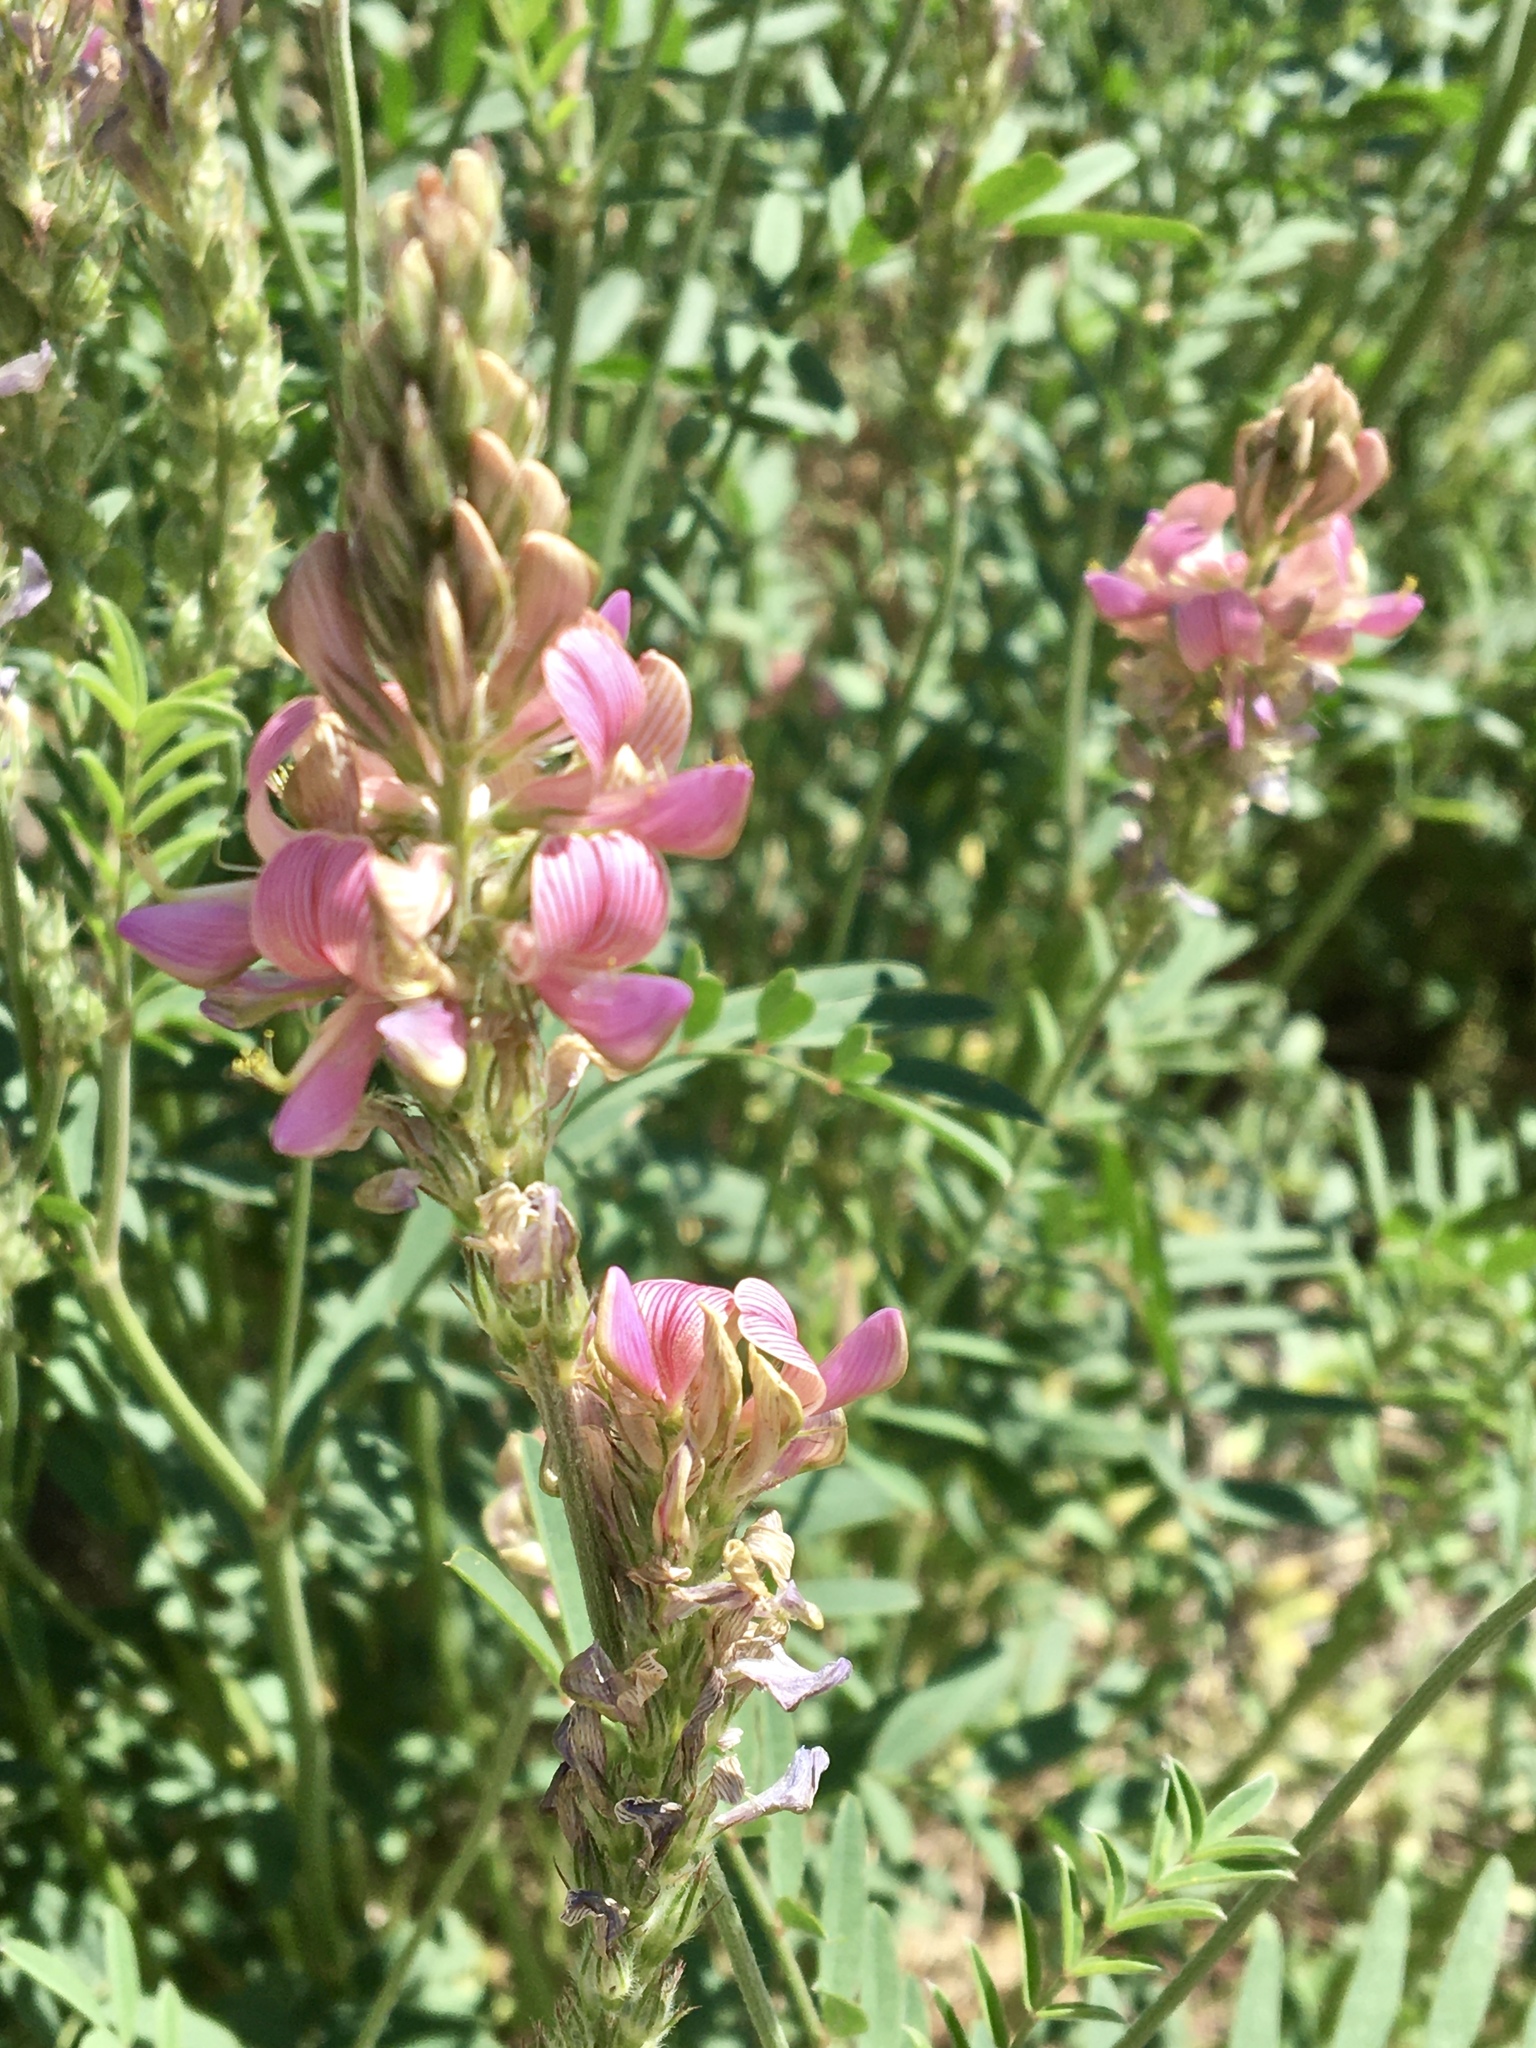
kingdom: Plantae
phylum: Tracheophyta
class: Magnoliopsida
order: Fabales
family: Fabaceae
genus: Onobrychis
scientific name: Onobrychis viciifolia
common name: Sainfoin
